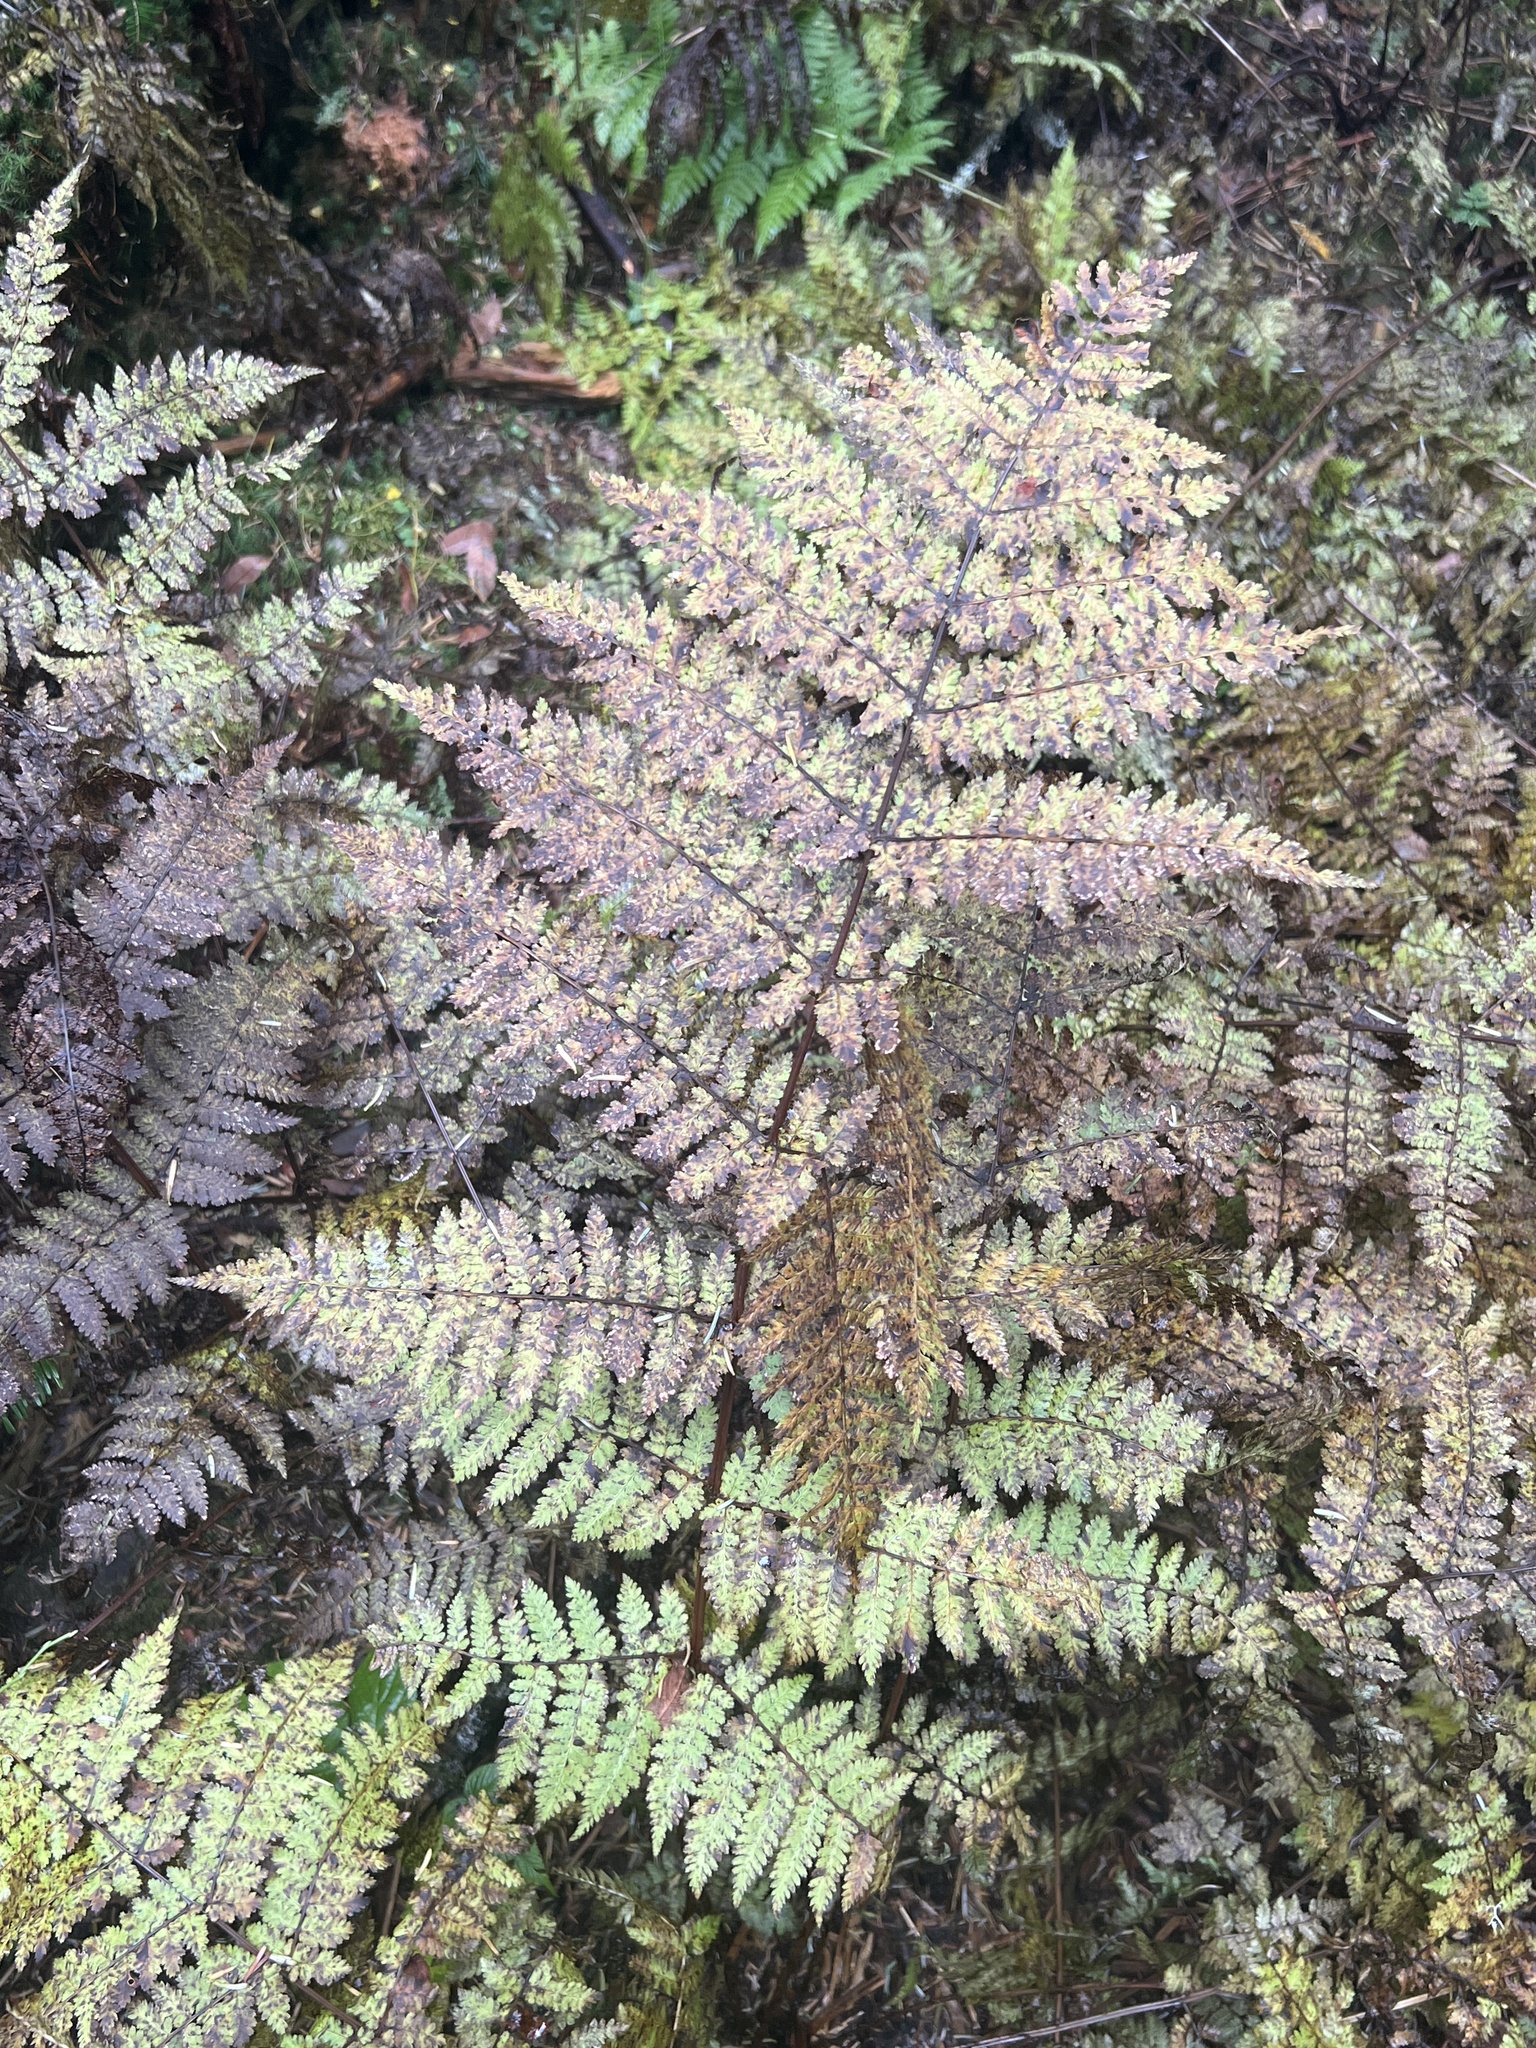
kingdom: Plantae
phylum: Tracheophyta
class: Polypodiopsida
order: Polypodiales
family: Dryopteridaceae
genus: Dryopteris
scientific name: Dryopteris campyloptera
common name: Mountain wood fern
